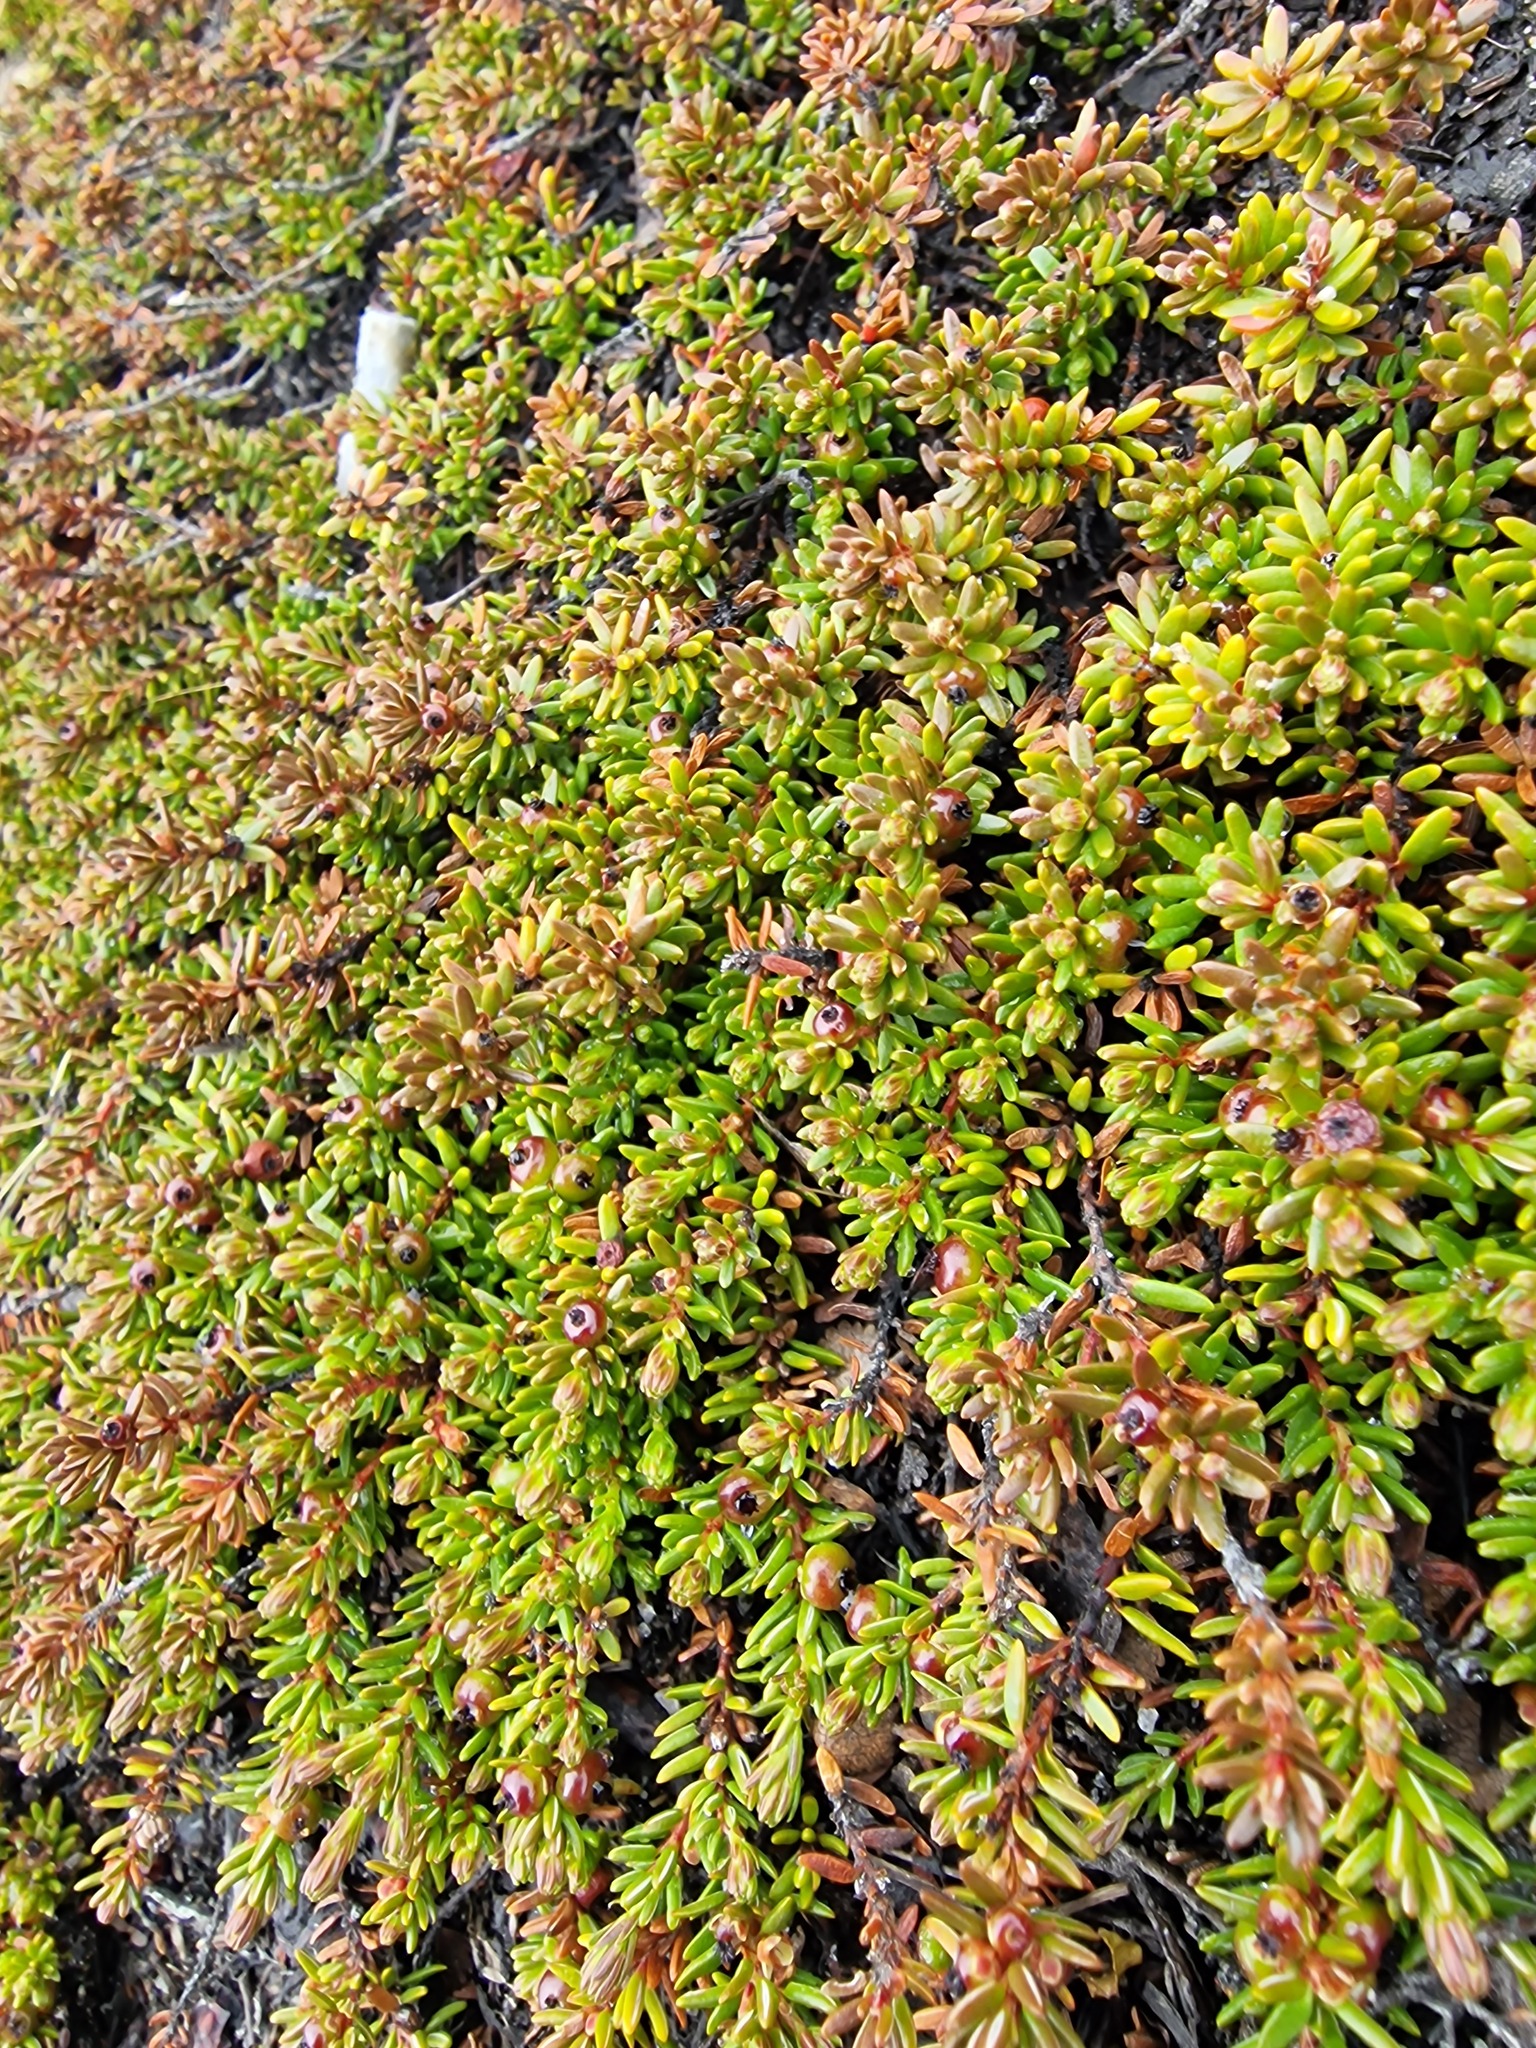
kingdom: Plantae
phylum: Tracheophyta
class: Magnoliopsida
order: Ericales
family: Ericaceae
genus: Empetrum
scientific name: Empetrum nigrum
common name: Black crowberry
